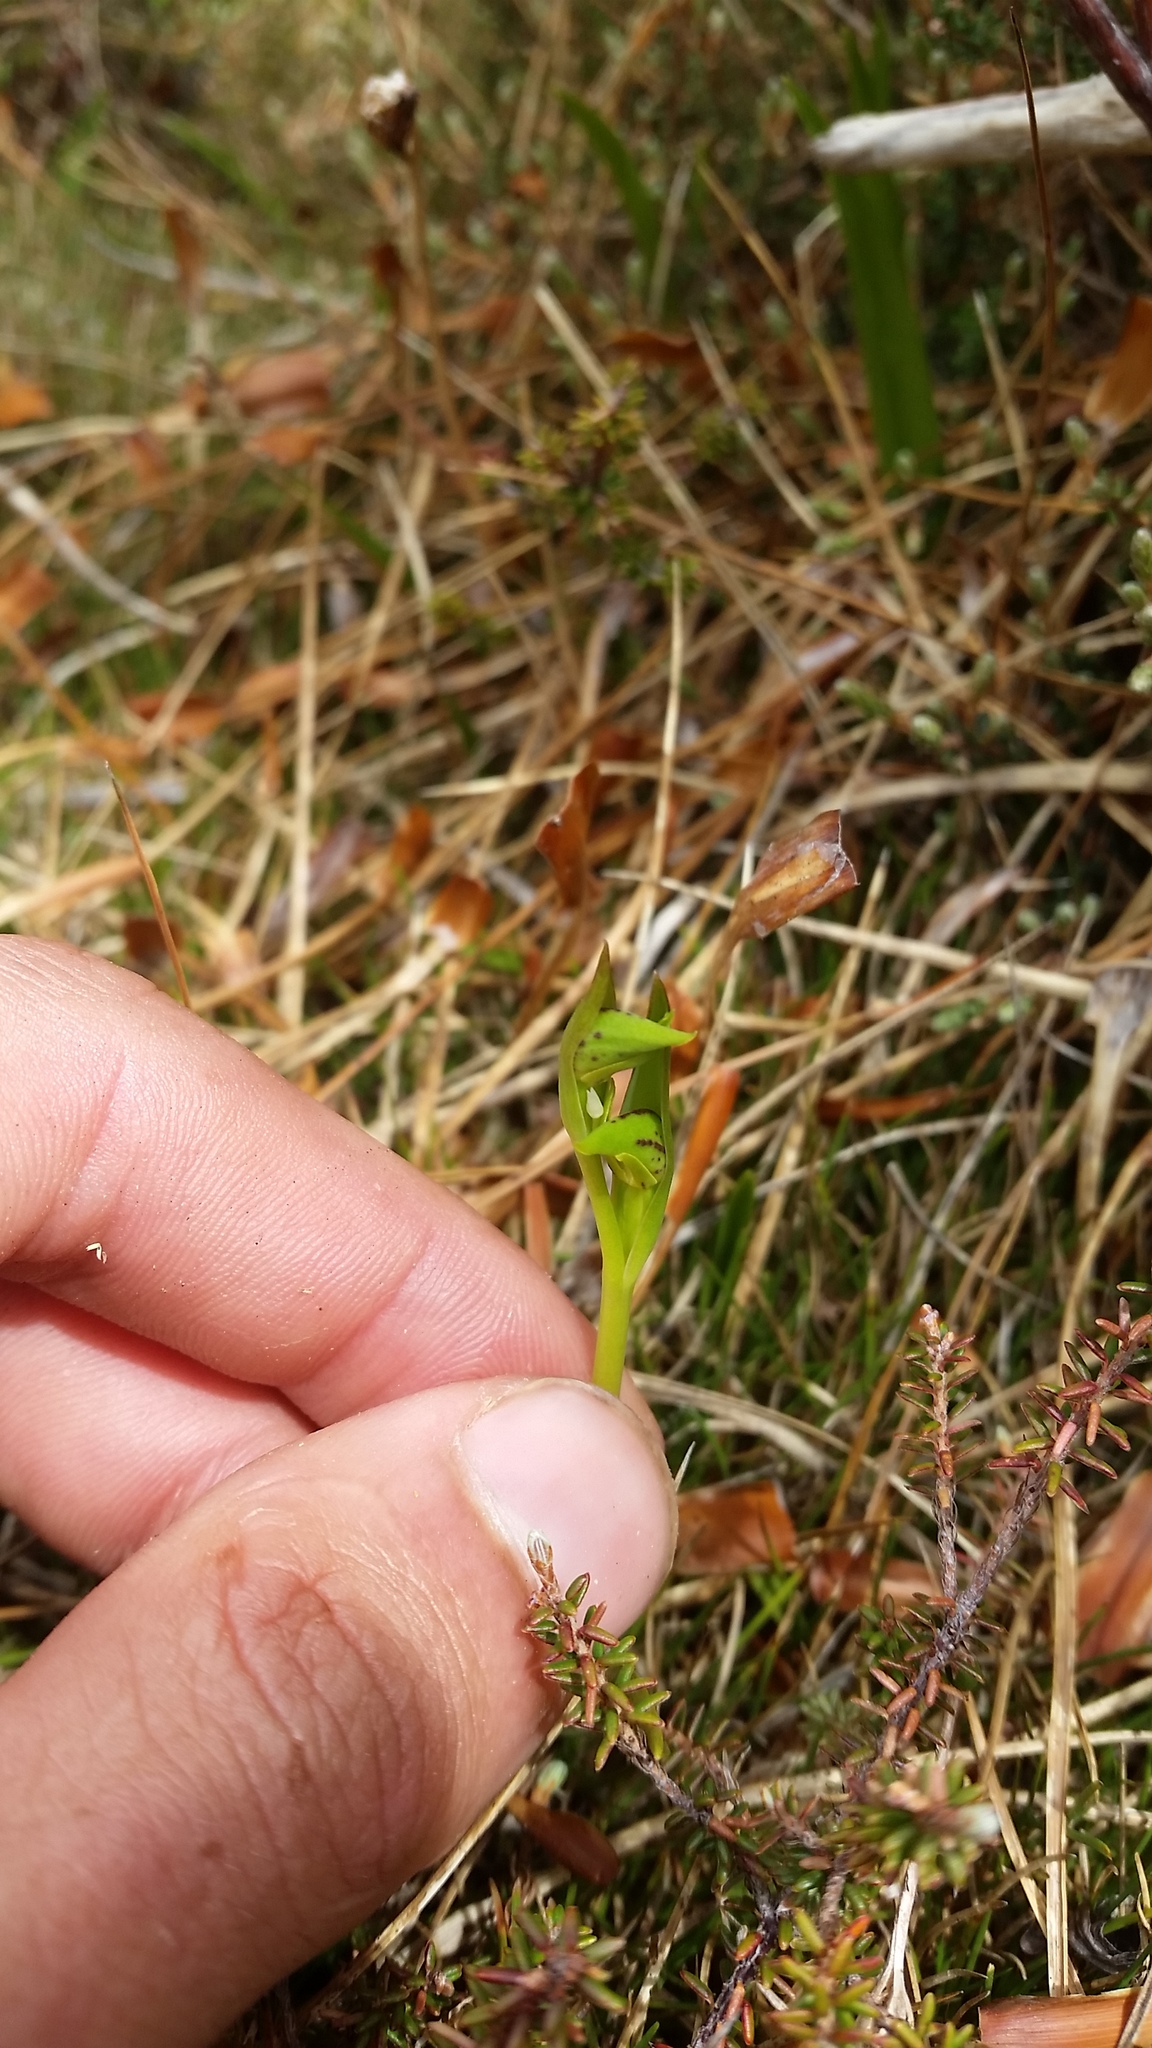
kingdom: Plantae
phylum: Tracheophyta
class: Liliopsida
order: Asparagales
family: Orchidaceae
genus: Waireia
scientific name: Waireia stenopetala
